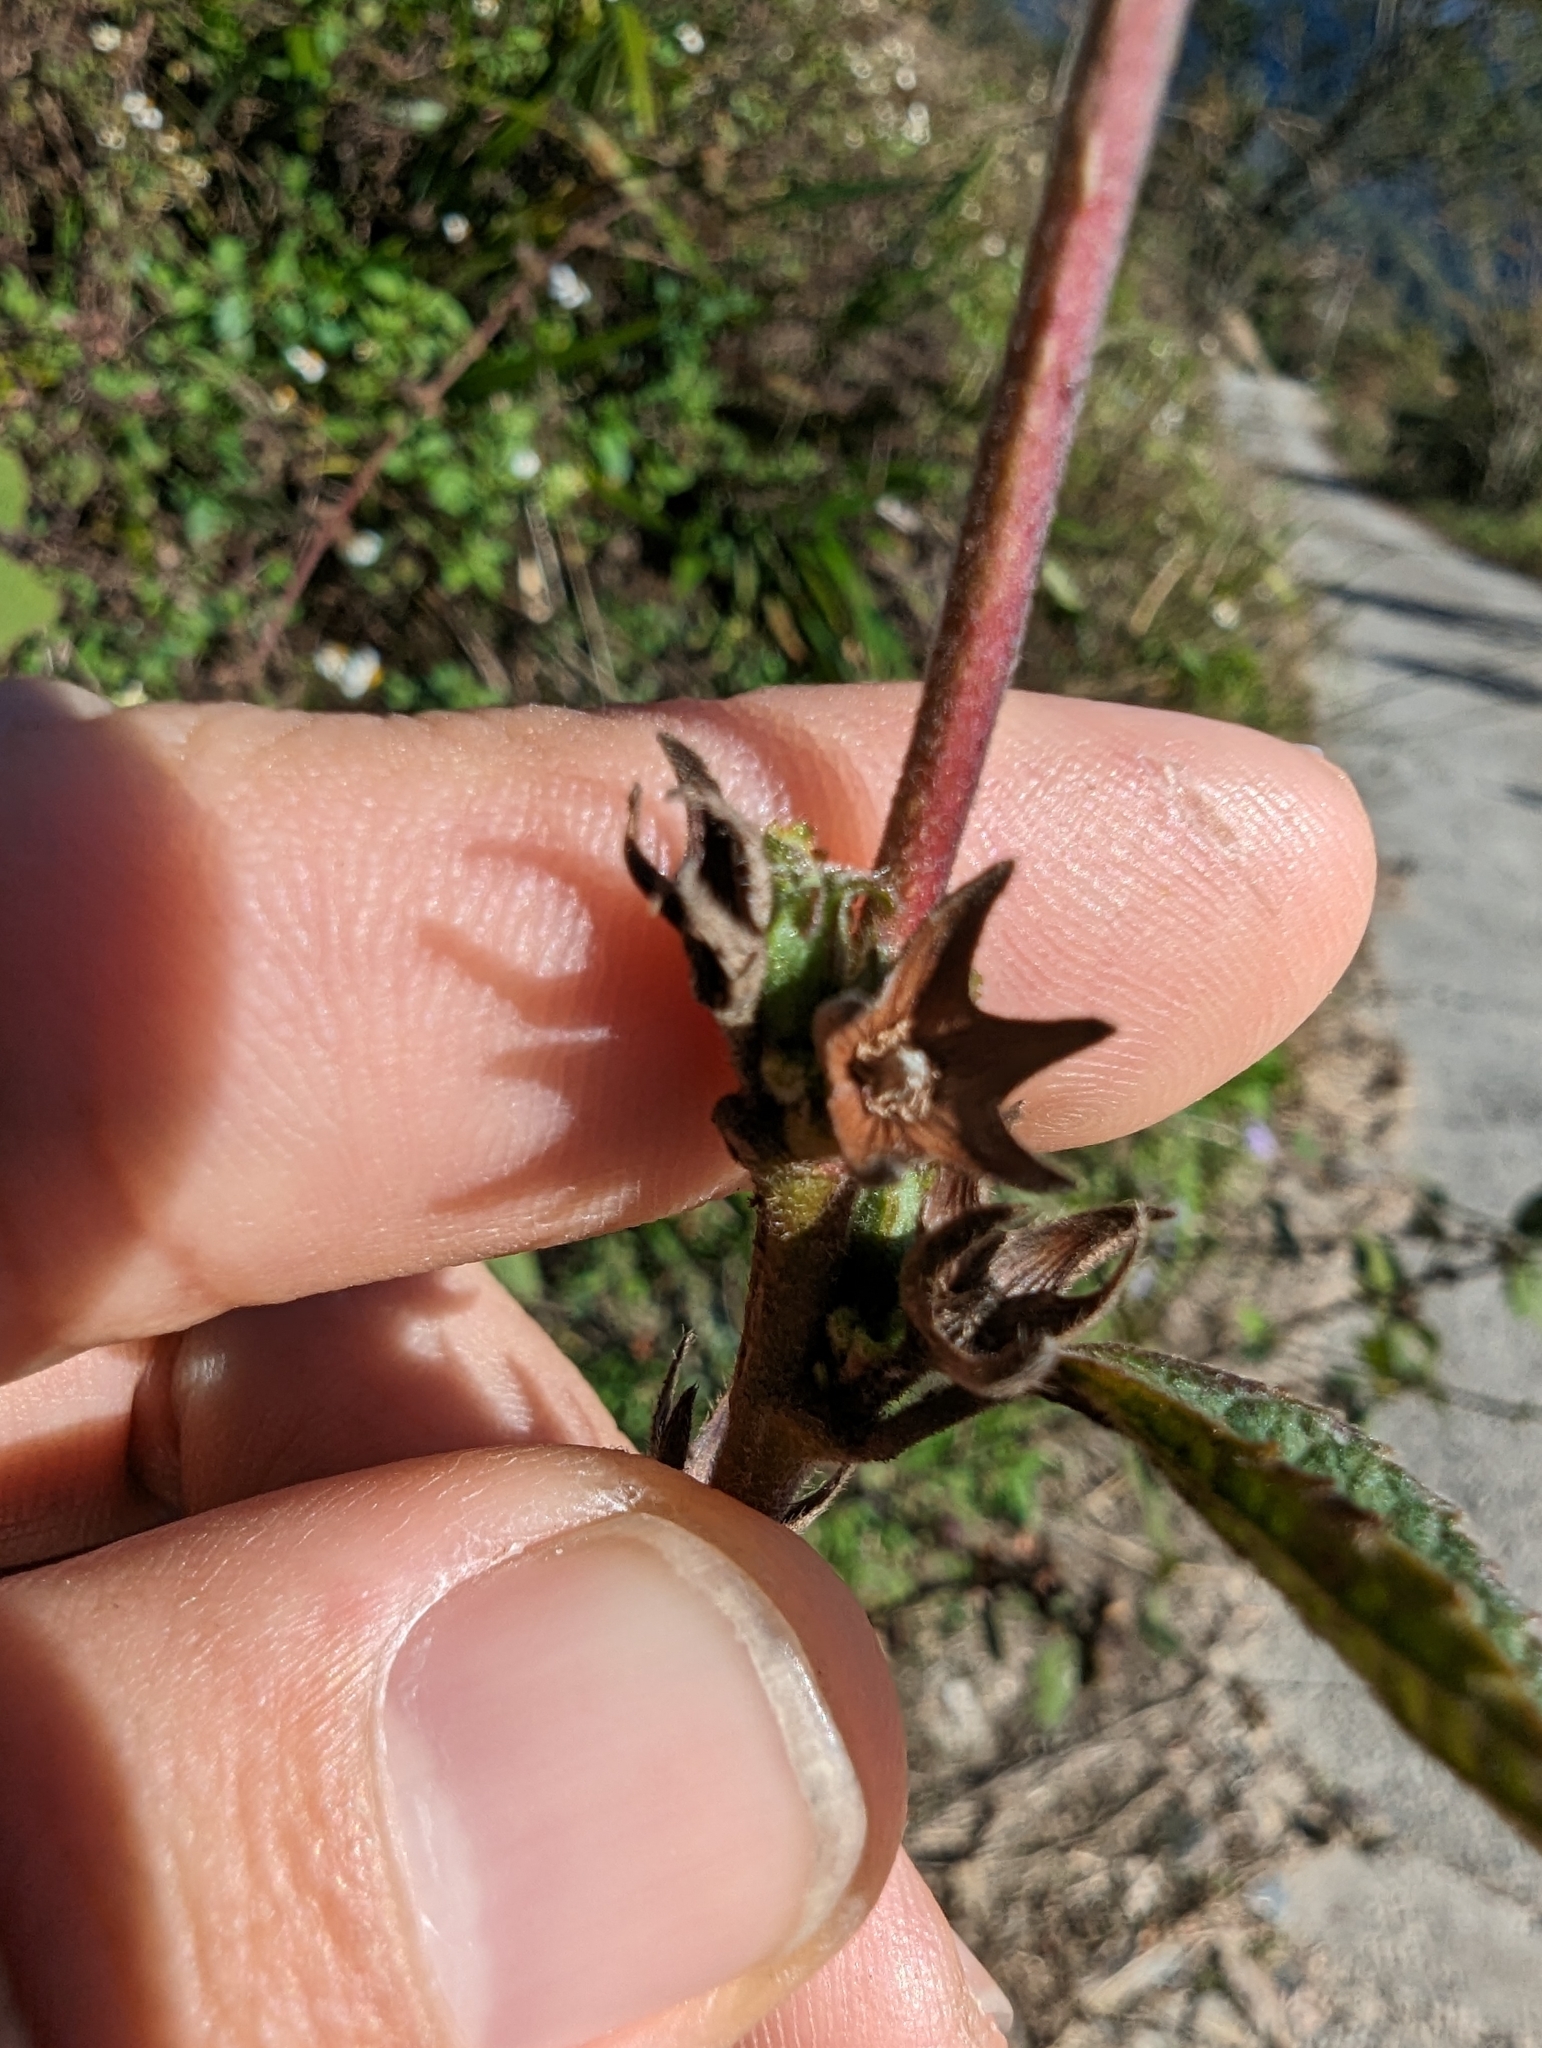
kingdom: Plantae
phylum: Tracheophyta
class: Magnoliopsida
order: Malvales
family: Malvaceae
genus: Urena
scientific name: Urena lobata
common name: Caesarweed
